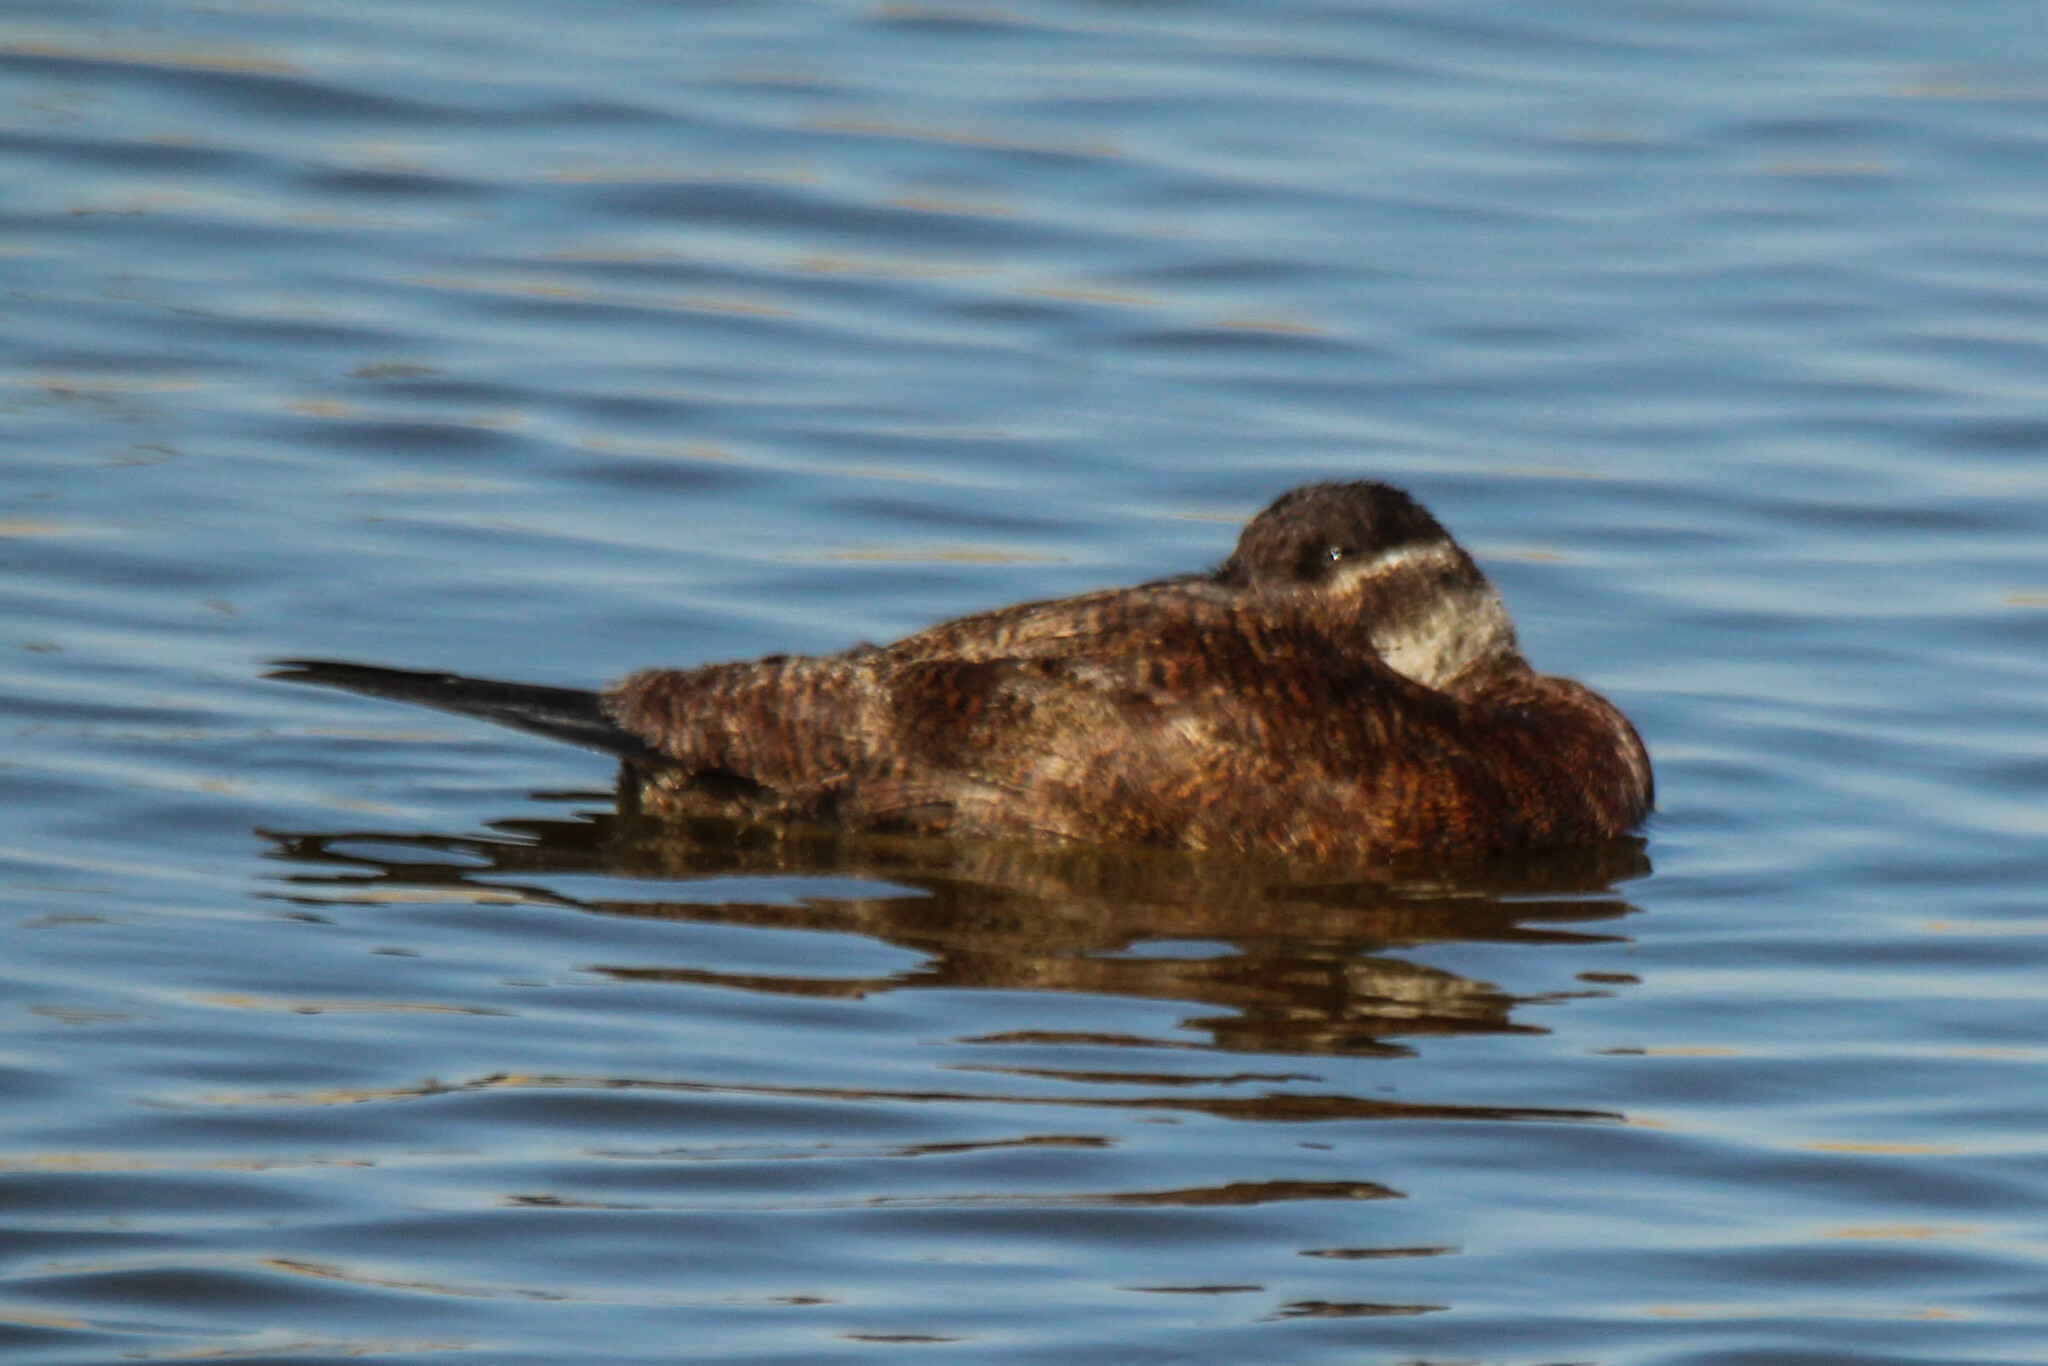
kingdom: Animalia
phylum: Chordata
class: Aves
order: Anseriformes
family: Anatidae
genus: Oxyura
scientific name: Oxyura leucocephala
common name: White-headed duck
